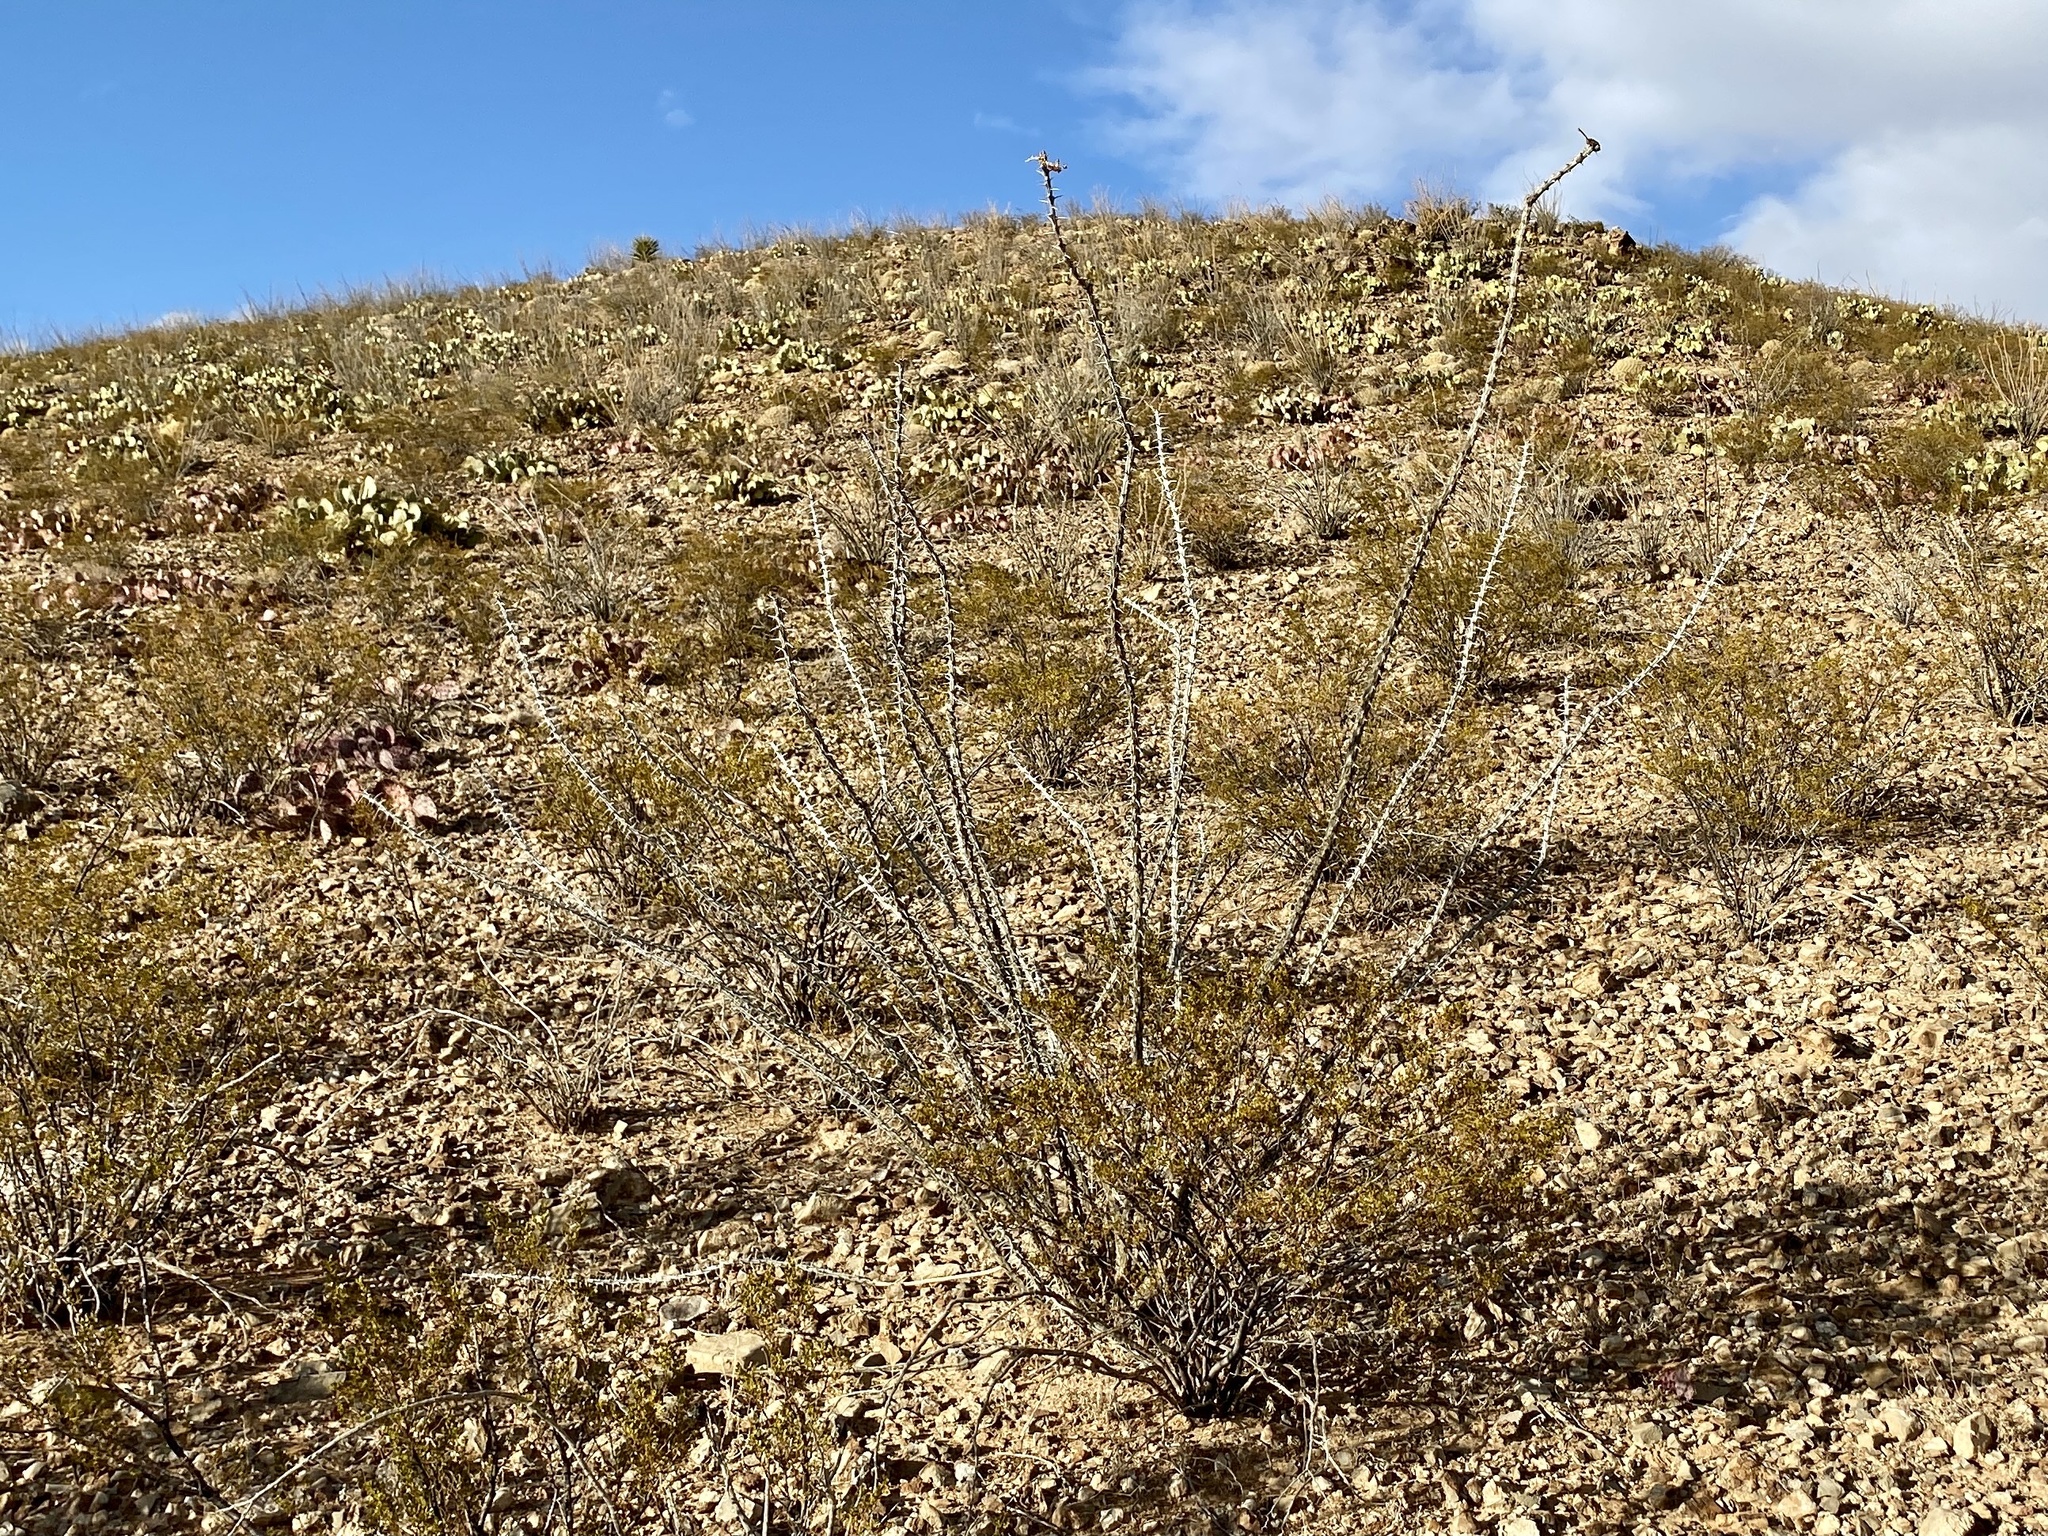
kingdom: Plantae
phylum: Tracheophyta
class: Magnoliopsida
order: Ericales
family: Fouquieriaceae
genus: Fouquieria
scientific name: Fouquieria splendens
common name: Vine-cactus
